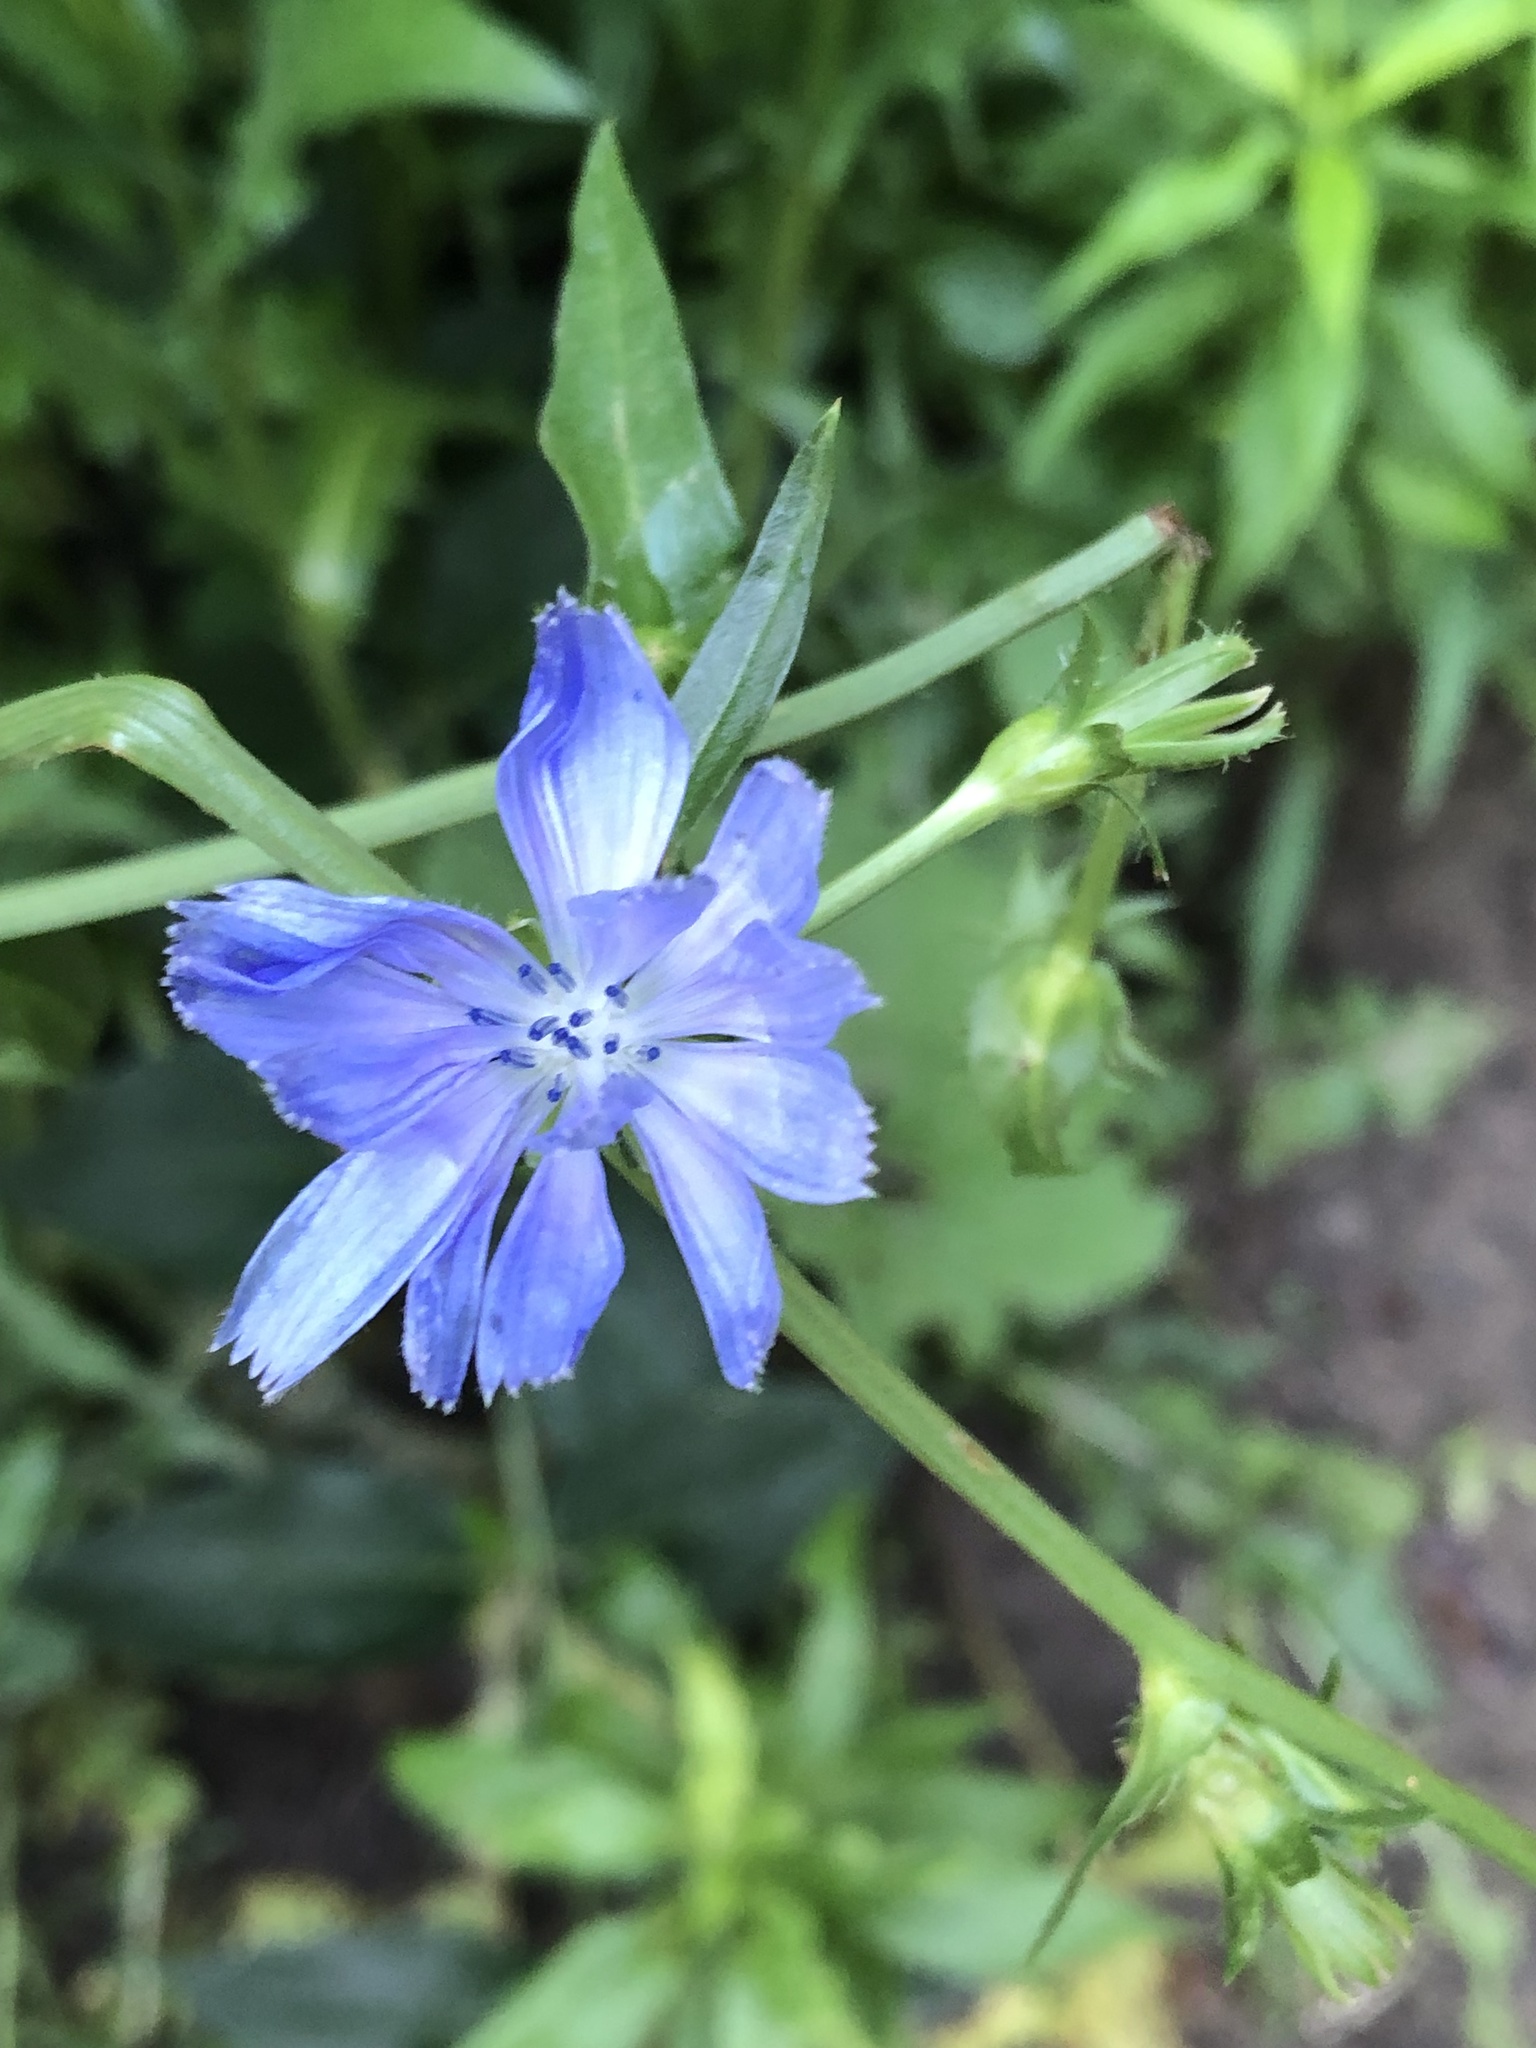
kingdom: Plantae
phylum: Tracheophyta
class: Magnoliopsida
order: Asterales
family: Asteraceae
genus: Cichorium
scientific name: Cichorium intybus
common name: Chicory
